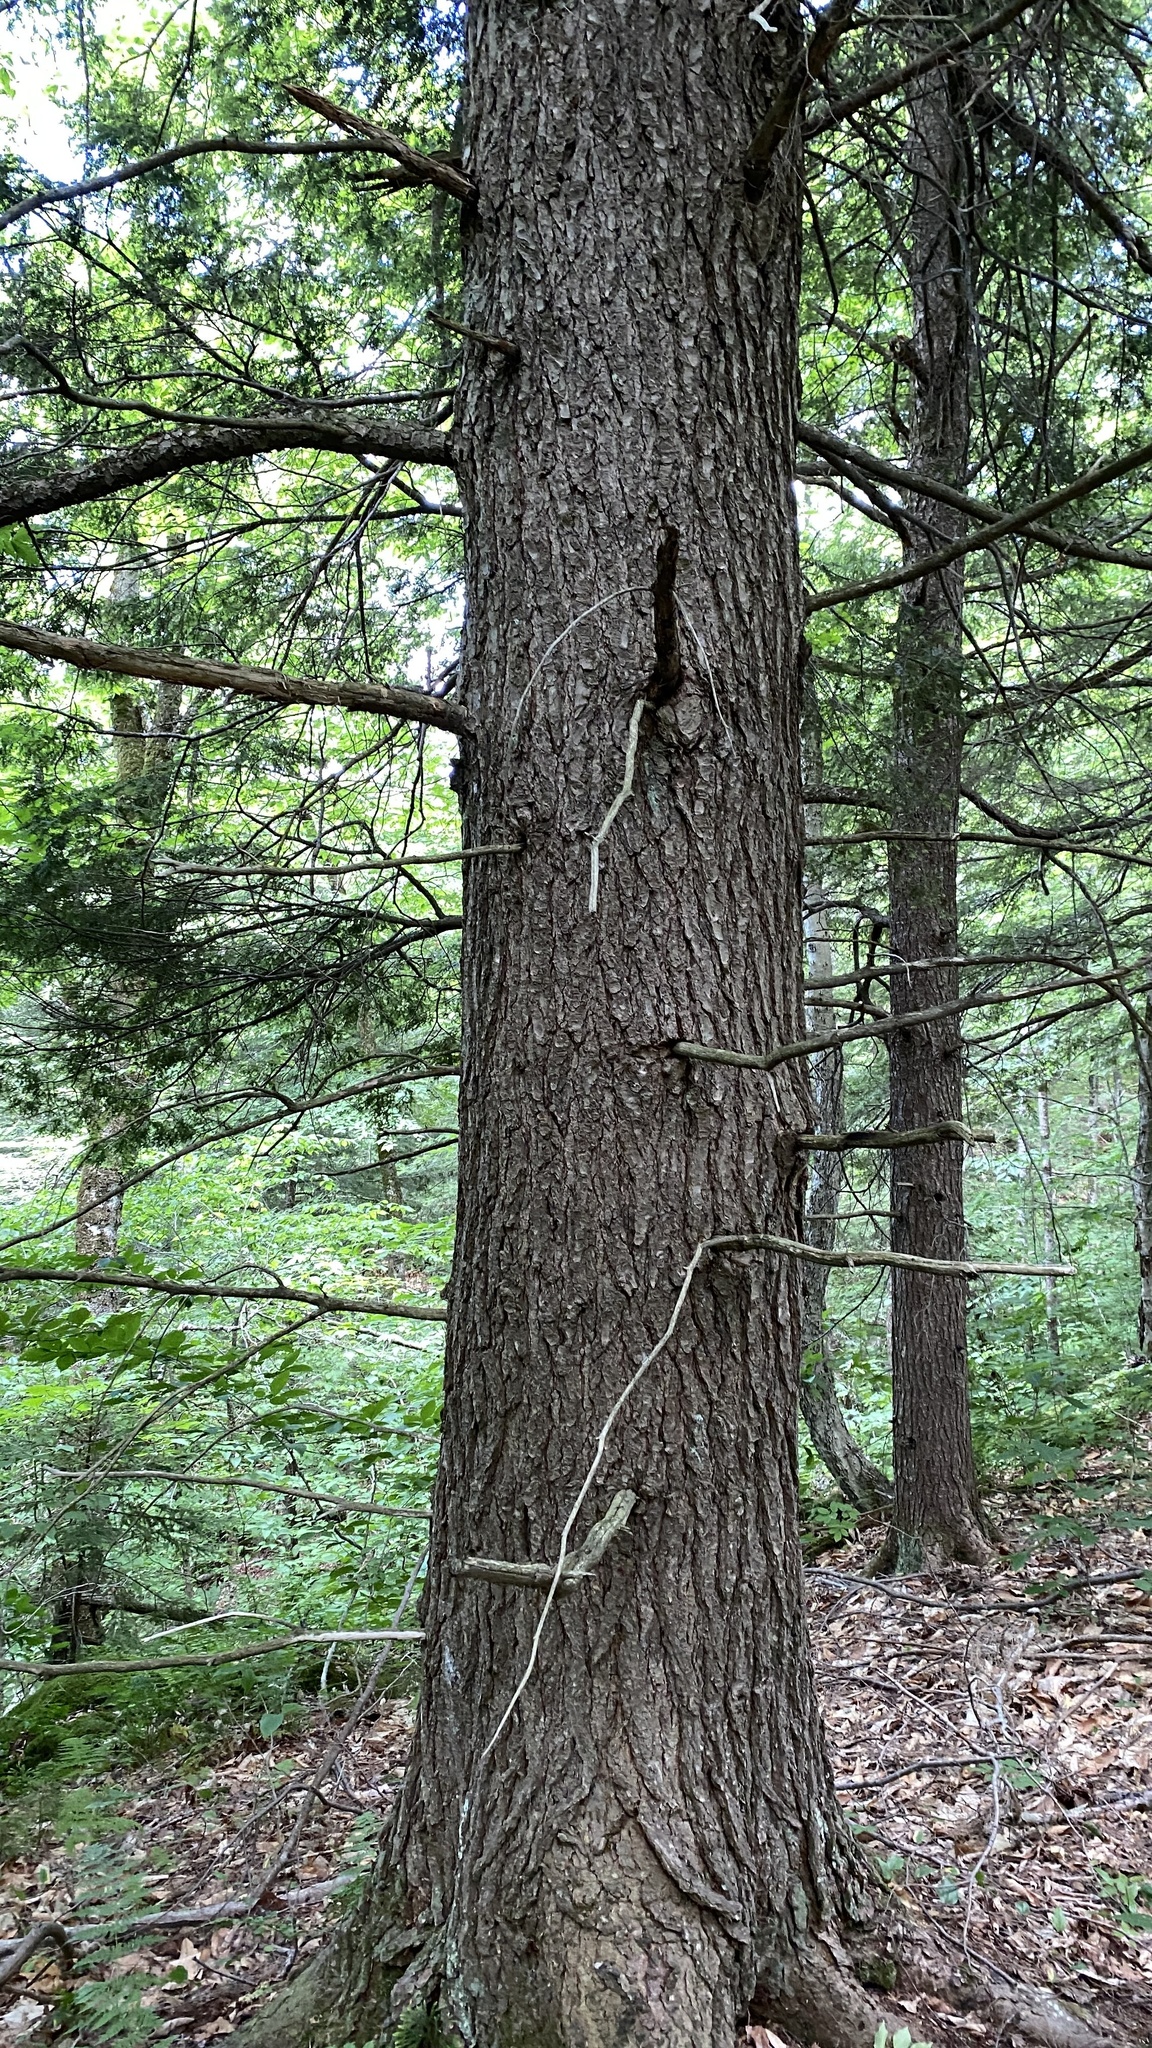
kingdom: Plantae
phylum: Tracheophyta
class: Pinopsida
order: Pinales
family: Pinaceae
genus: Tsuga
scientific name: Tsuga canadensis
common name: Eastern hemlock
